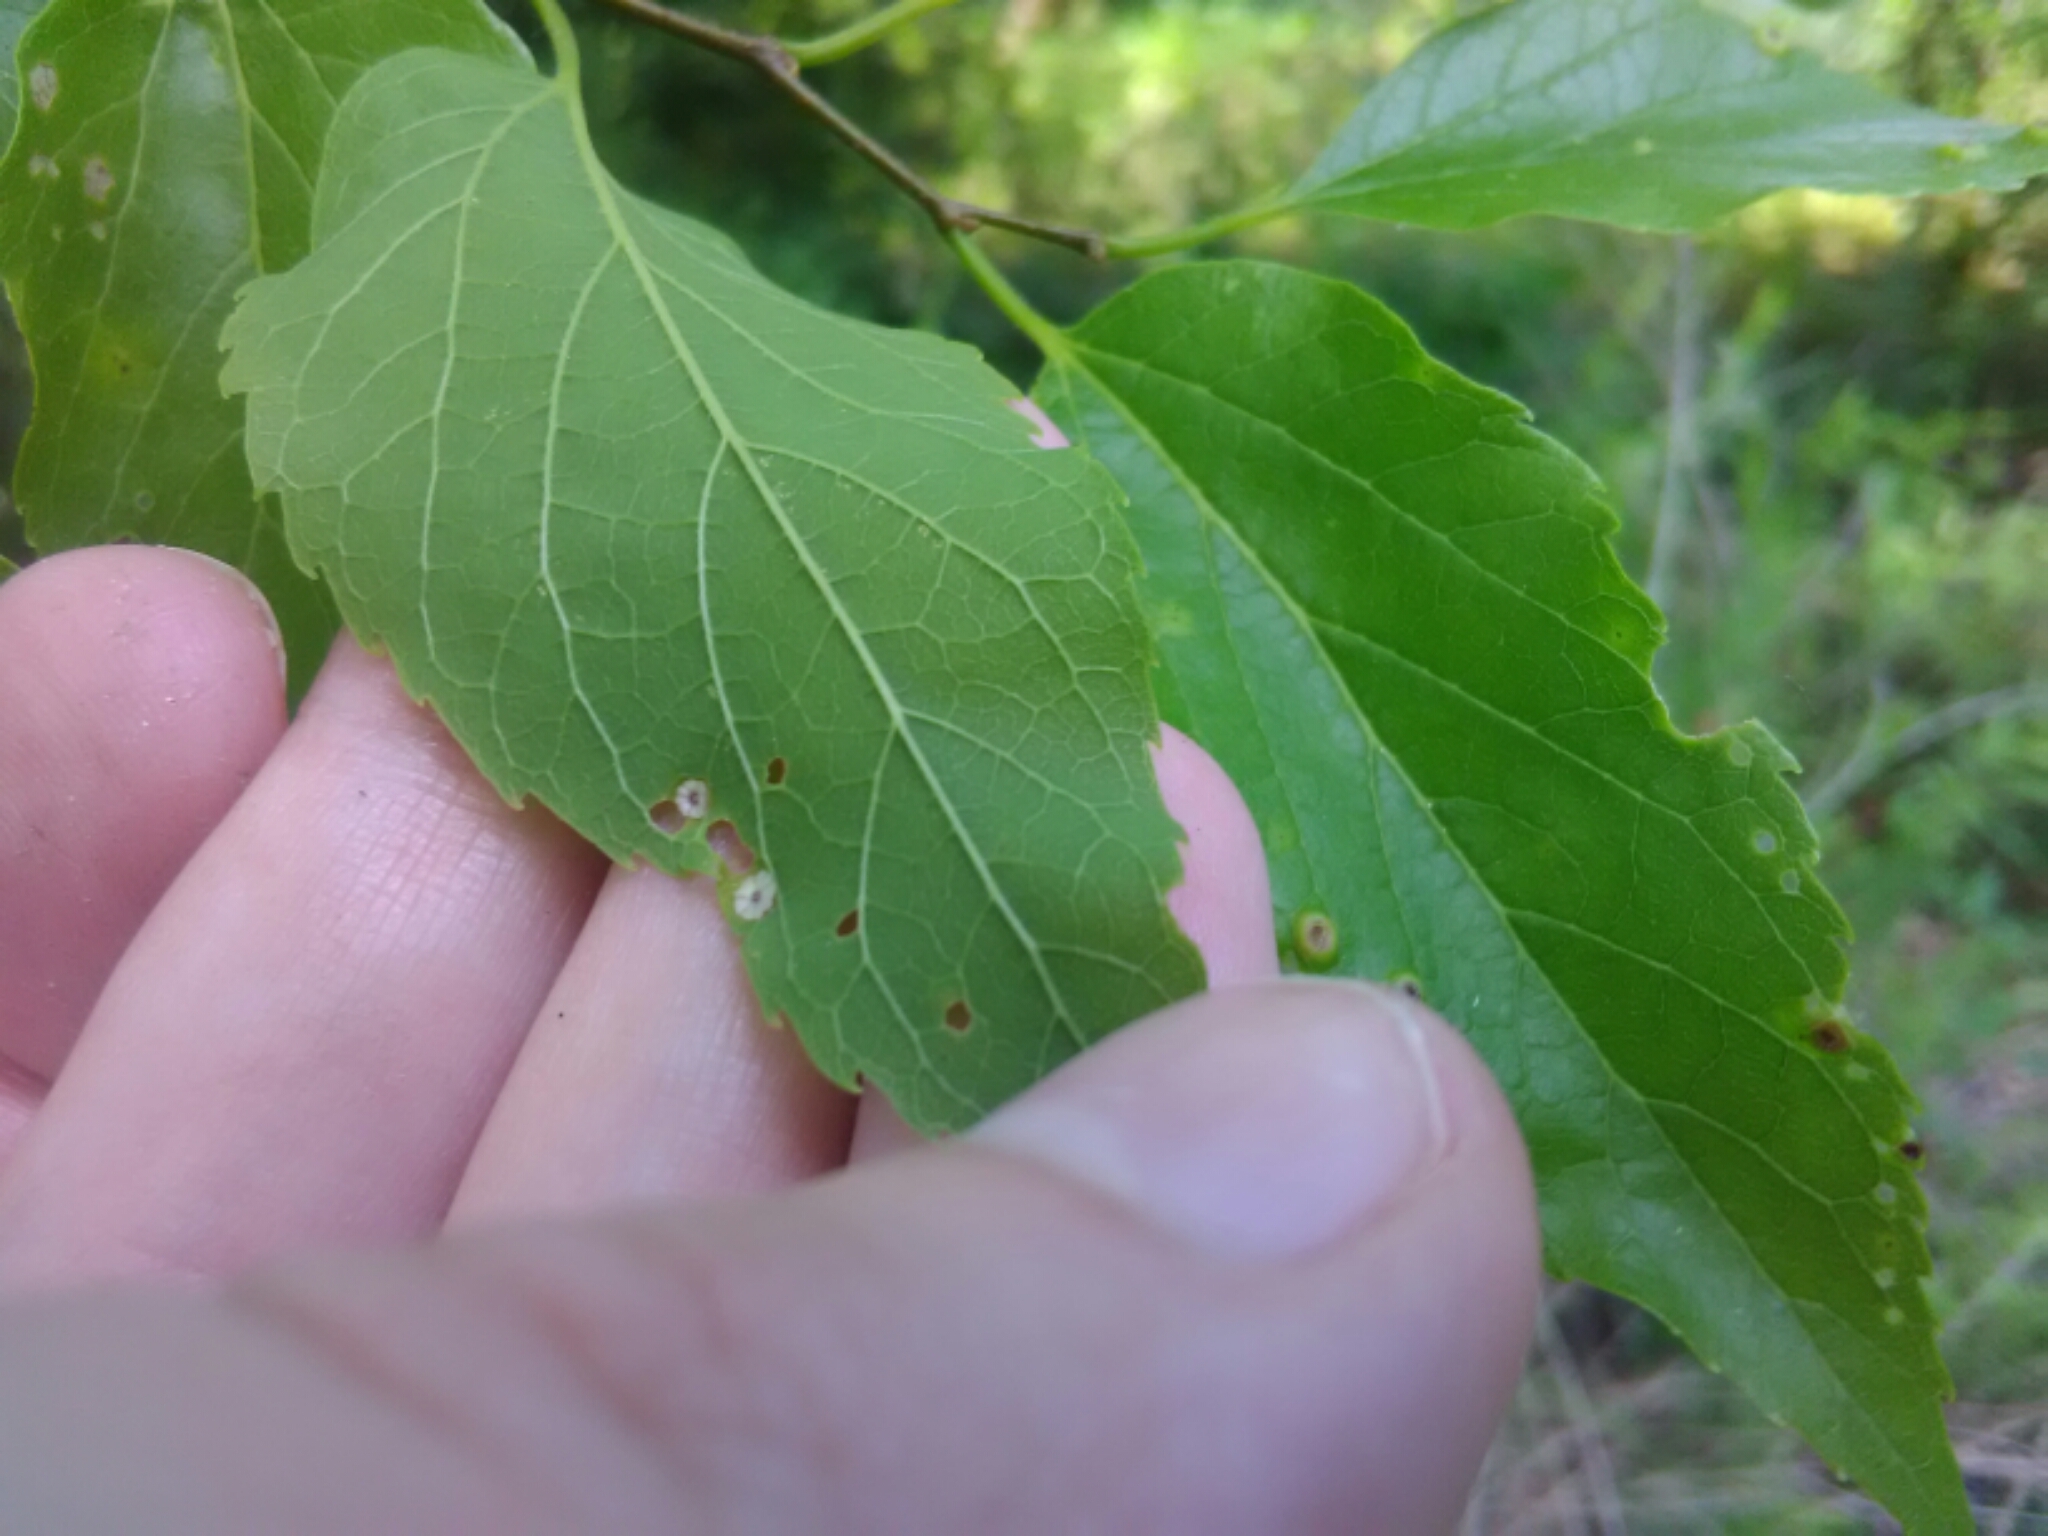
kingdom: Animalia
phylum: Arthropoda
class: Insecta
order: Hemiptera
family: Aphalaridae
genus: Pachypsylla
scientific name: Pachypsylla celtidisasterisca
